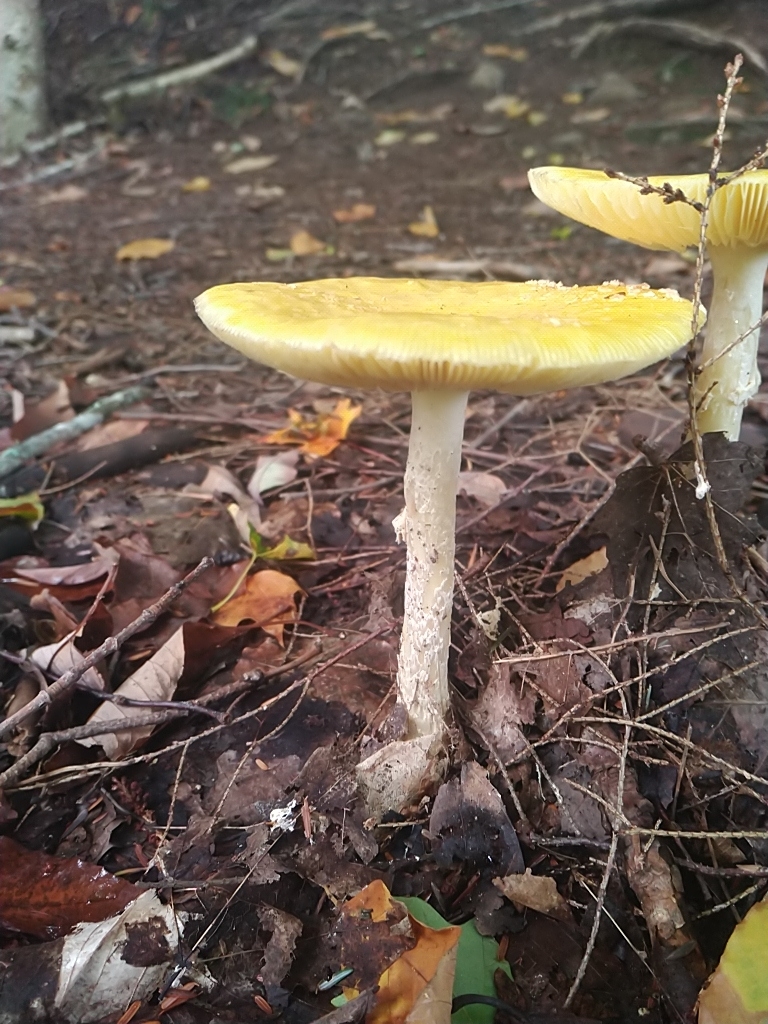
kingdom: Fungi
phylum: Basidiomycota
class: Agaricomycetes
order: Agaricales
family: Amanitaceae
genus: Amanita
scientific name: Amanita muscaria
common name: Fly agaric
